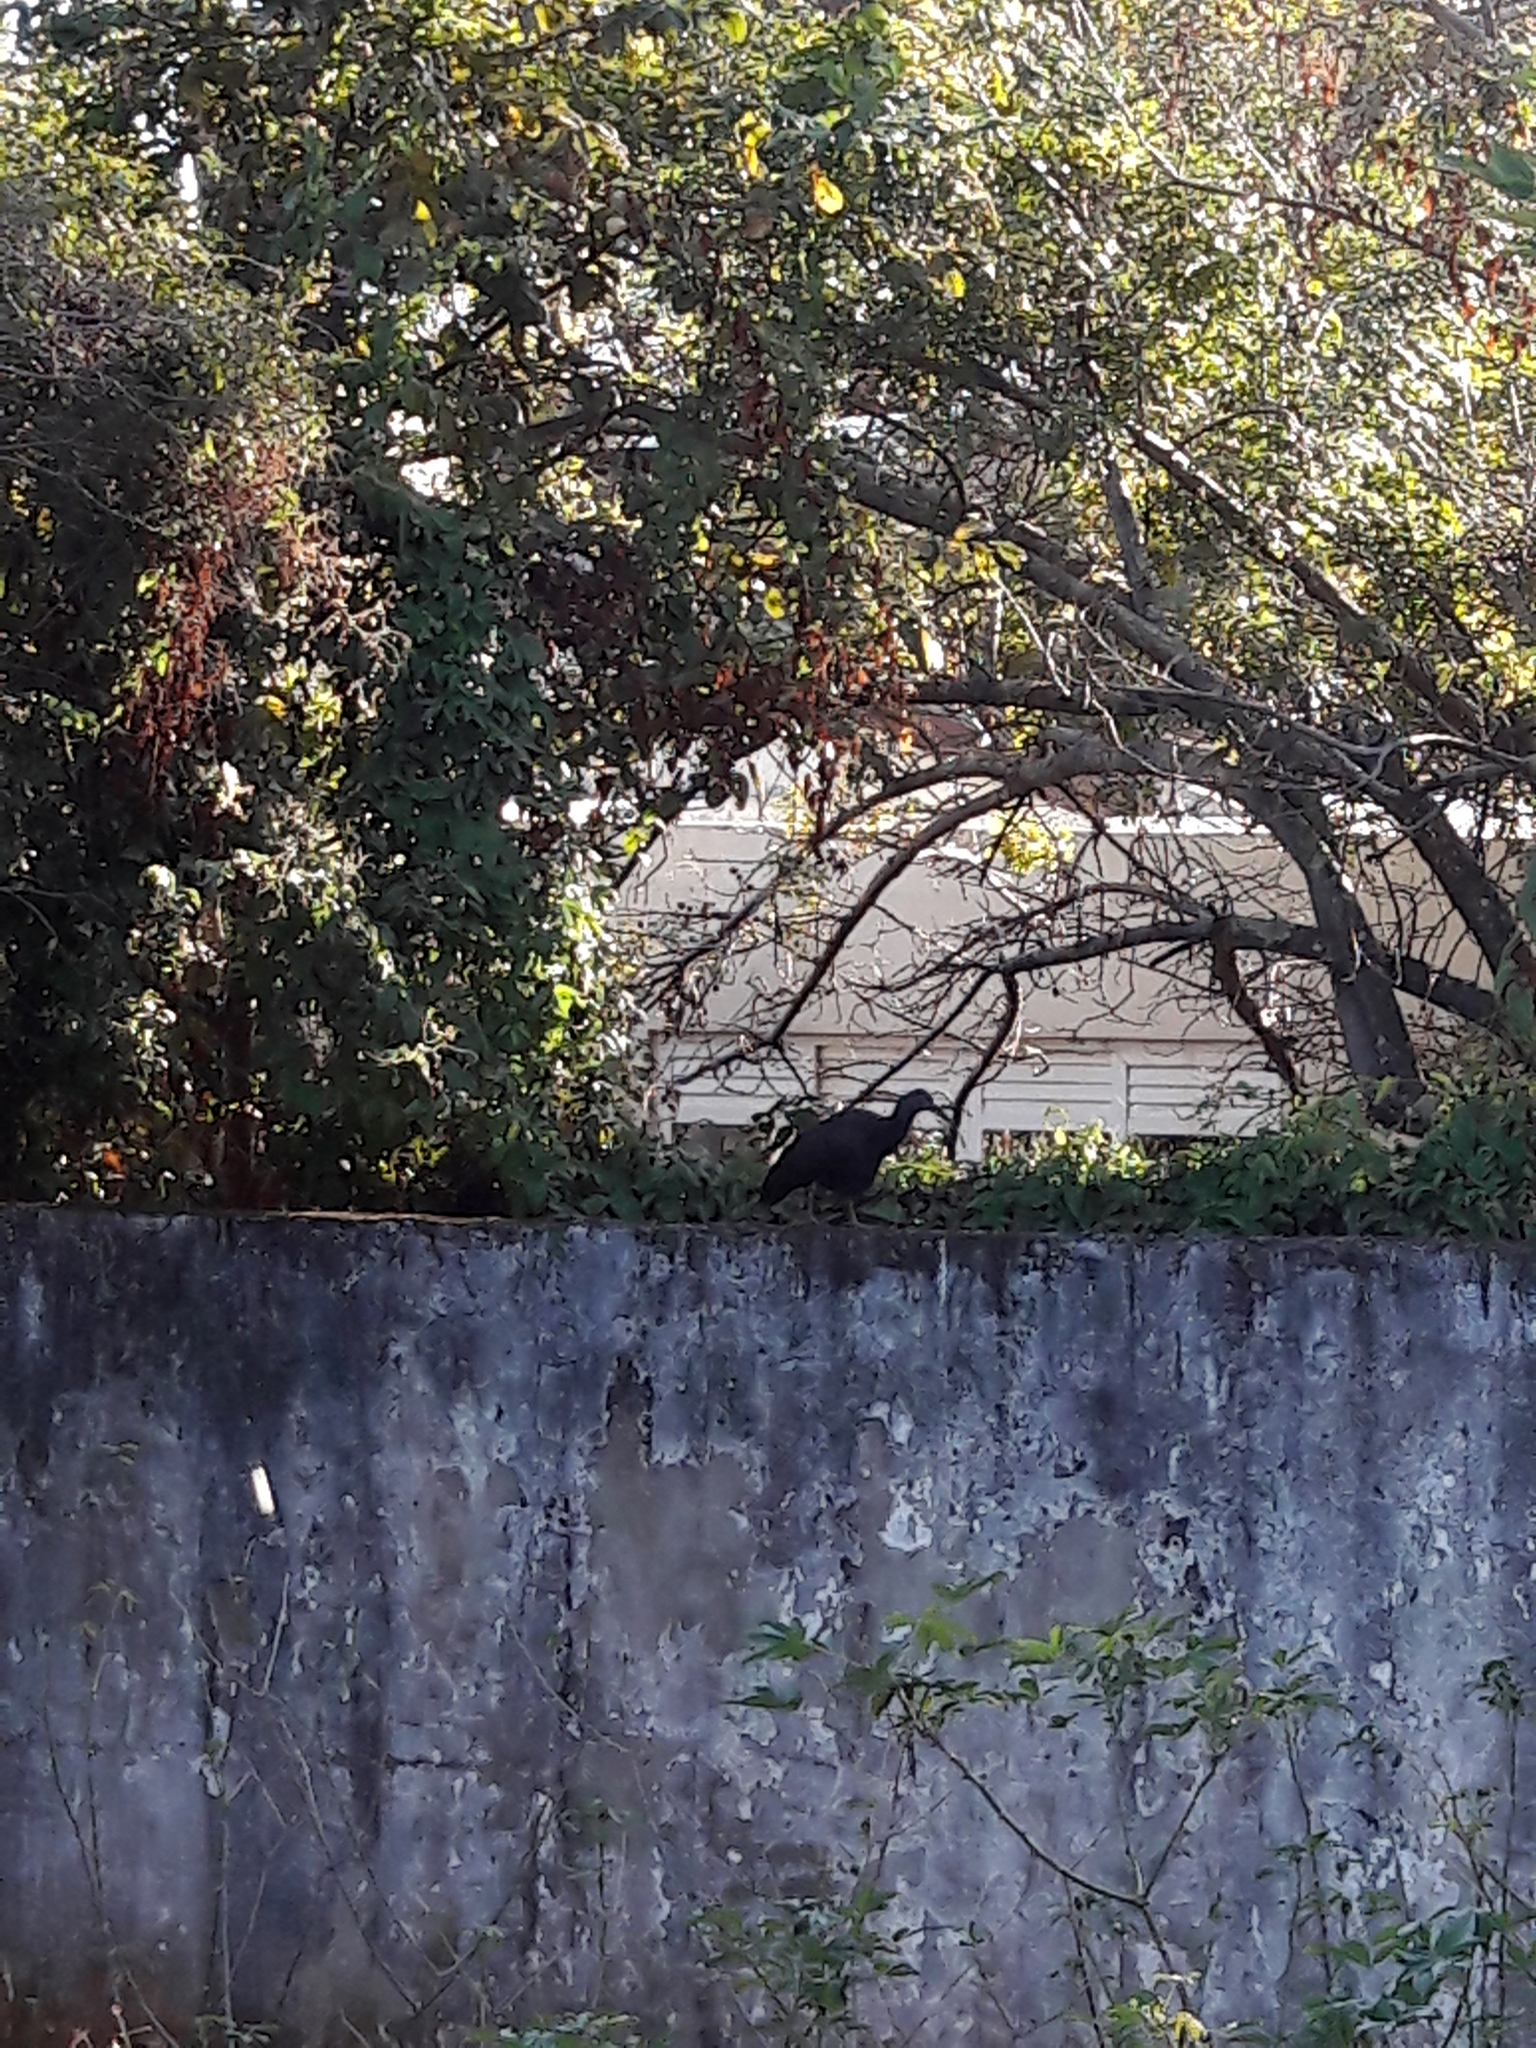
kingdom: Animalia
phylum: Chordata
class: Aves
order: Pelecaniformes
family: Threskiornithidae
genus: Mesembrinibis
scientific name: Mesembrinibis cayennensis
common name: Green ibis
